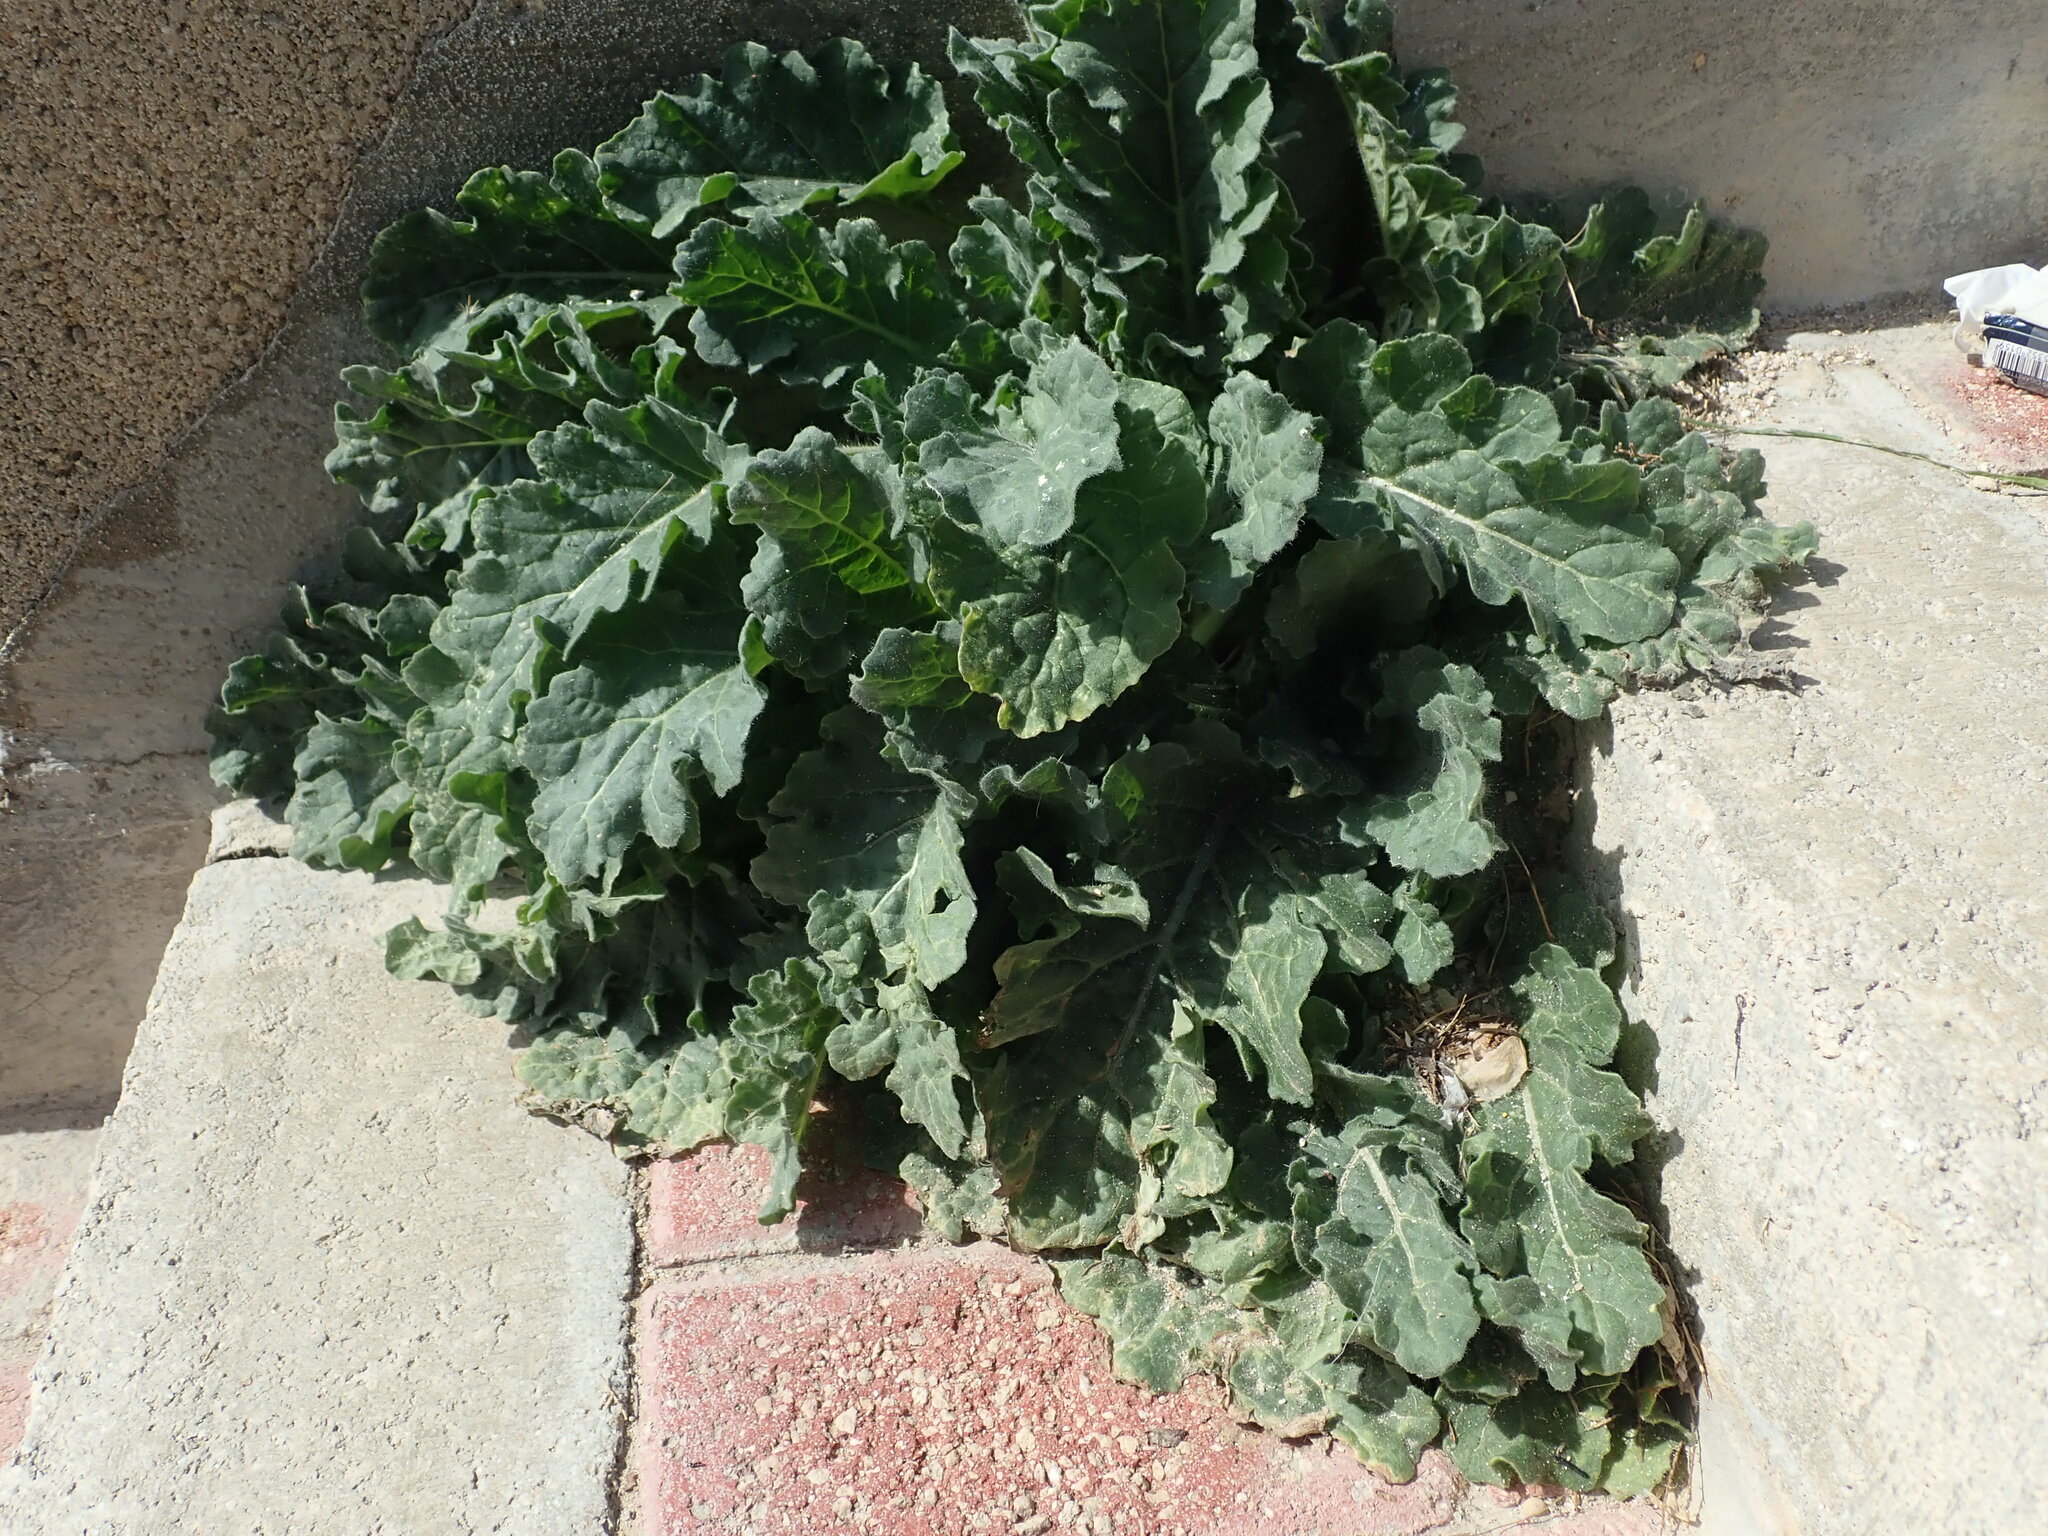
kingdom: Plantae
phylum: Tracheophyta
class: Magnoliopsida
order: Solanales
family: Solanaceae
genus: Hyoscyamus
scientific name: Hyoscyamus albus
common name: White henbane
